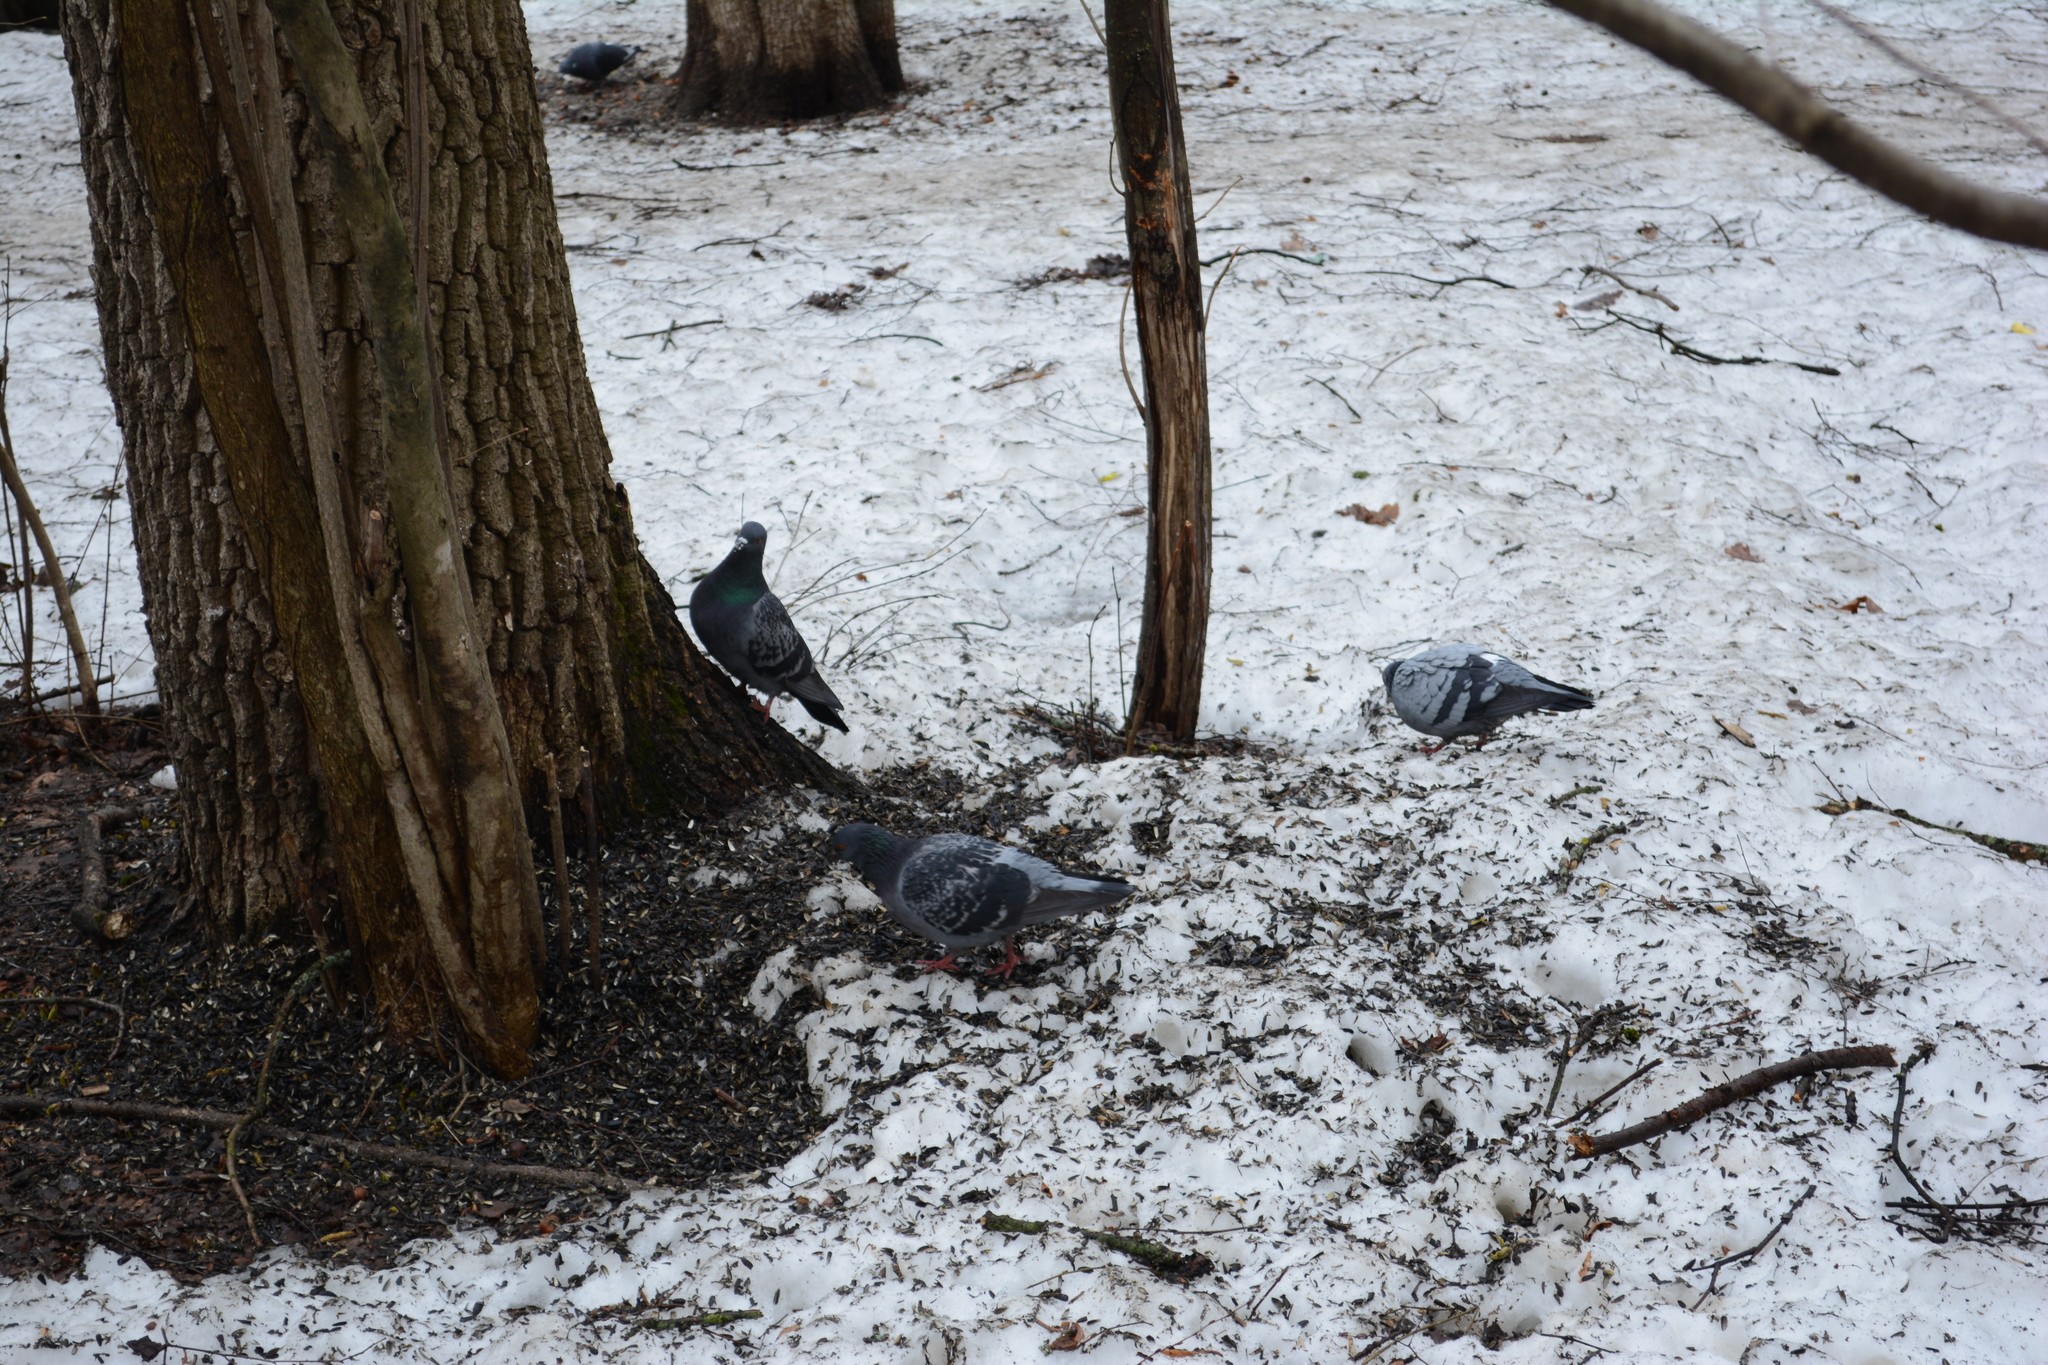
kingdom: Animalia
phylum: Chordata
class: Aves
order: Columbiformes
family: Columbidae
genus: Columba
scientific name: Columba livia
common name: Rock pigeon
